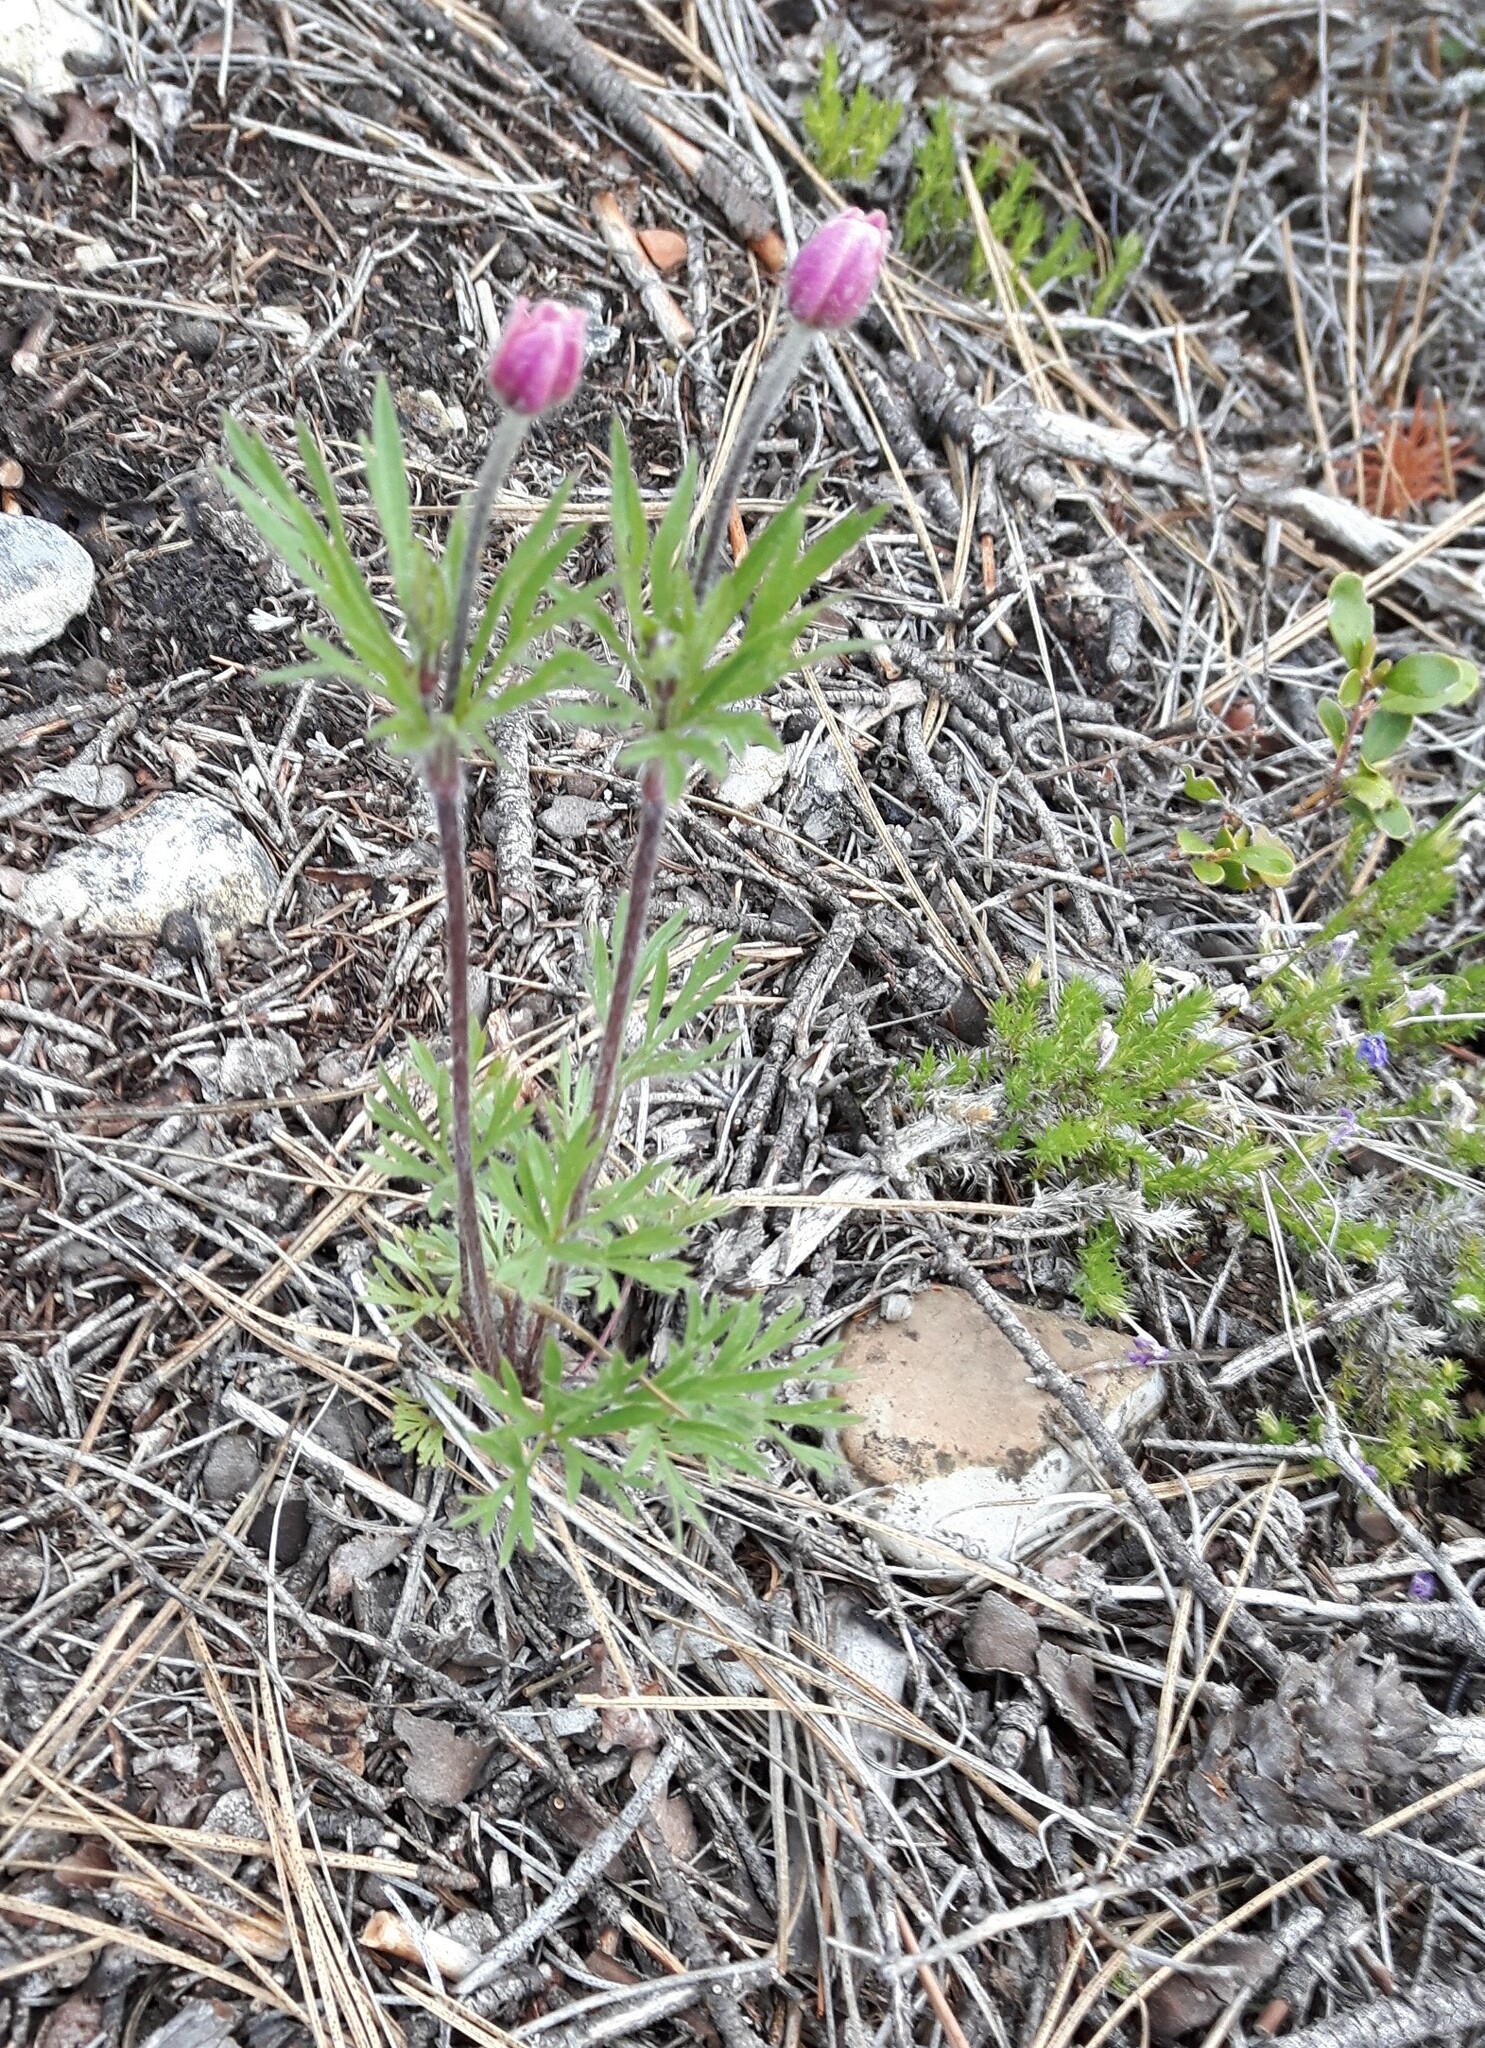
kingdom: Plantae
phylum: Tracheophyta
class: Magnoliopsida
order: Ranunculales
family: Ranunculaceae
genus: Anemone
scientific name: Anemone multifida
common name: Bird's-foot anemone
